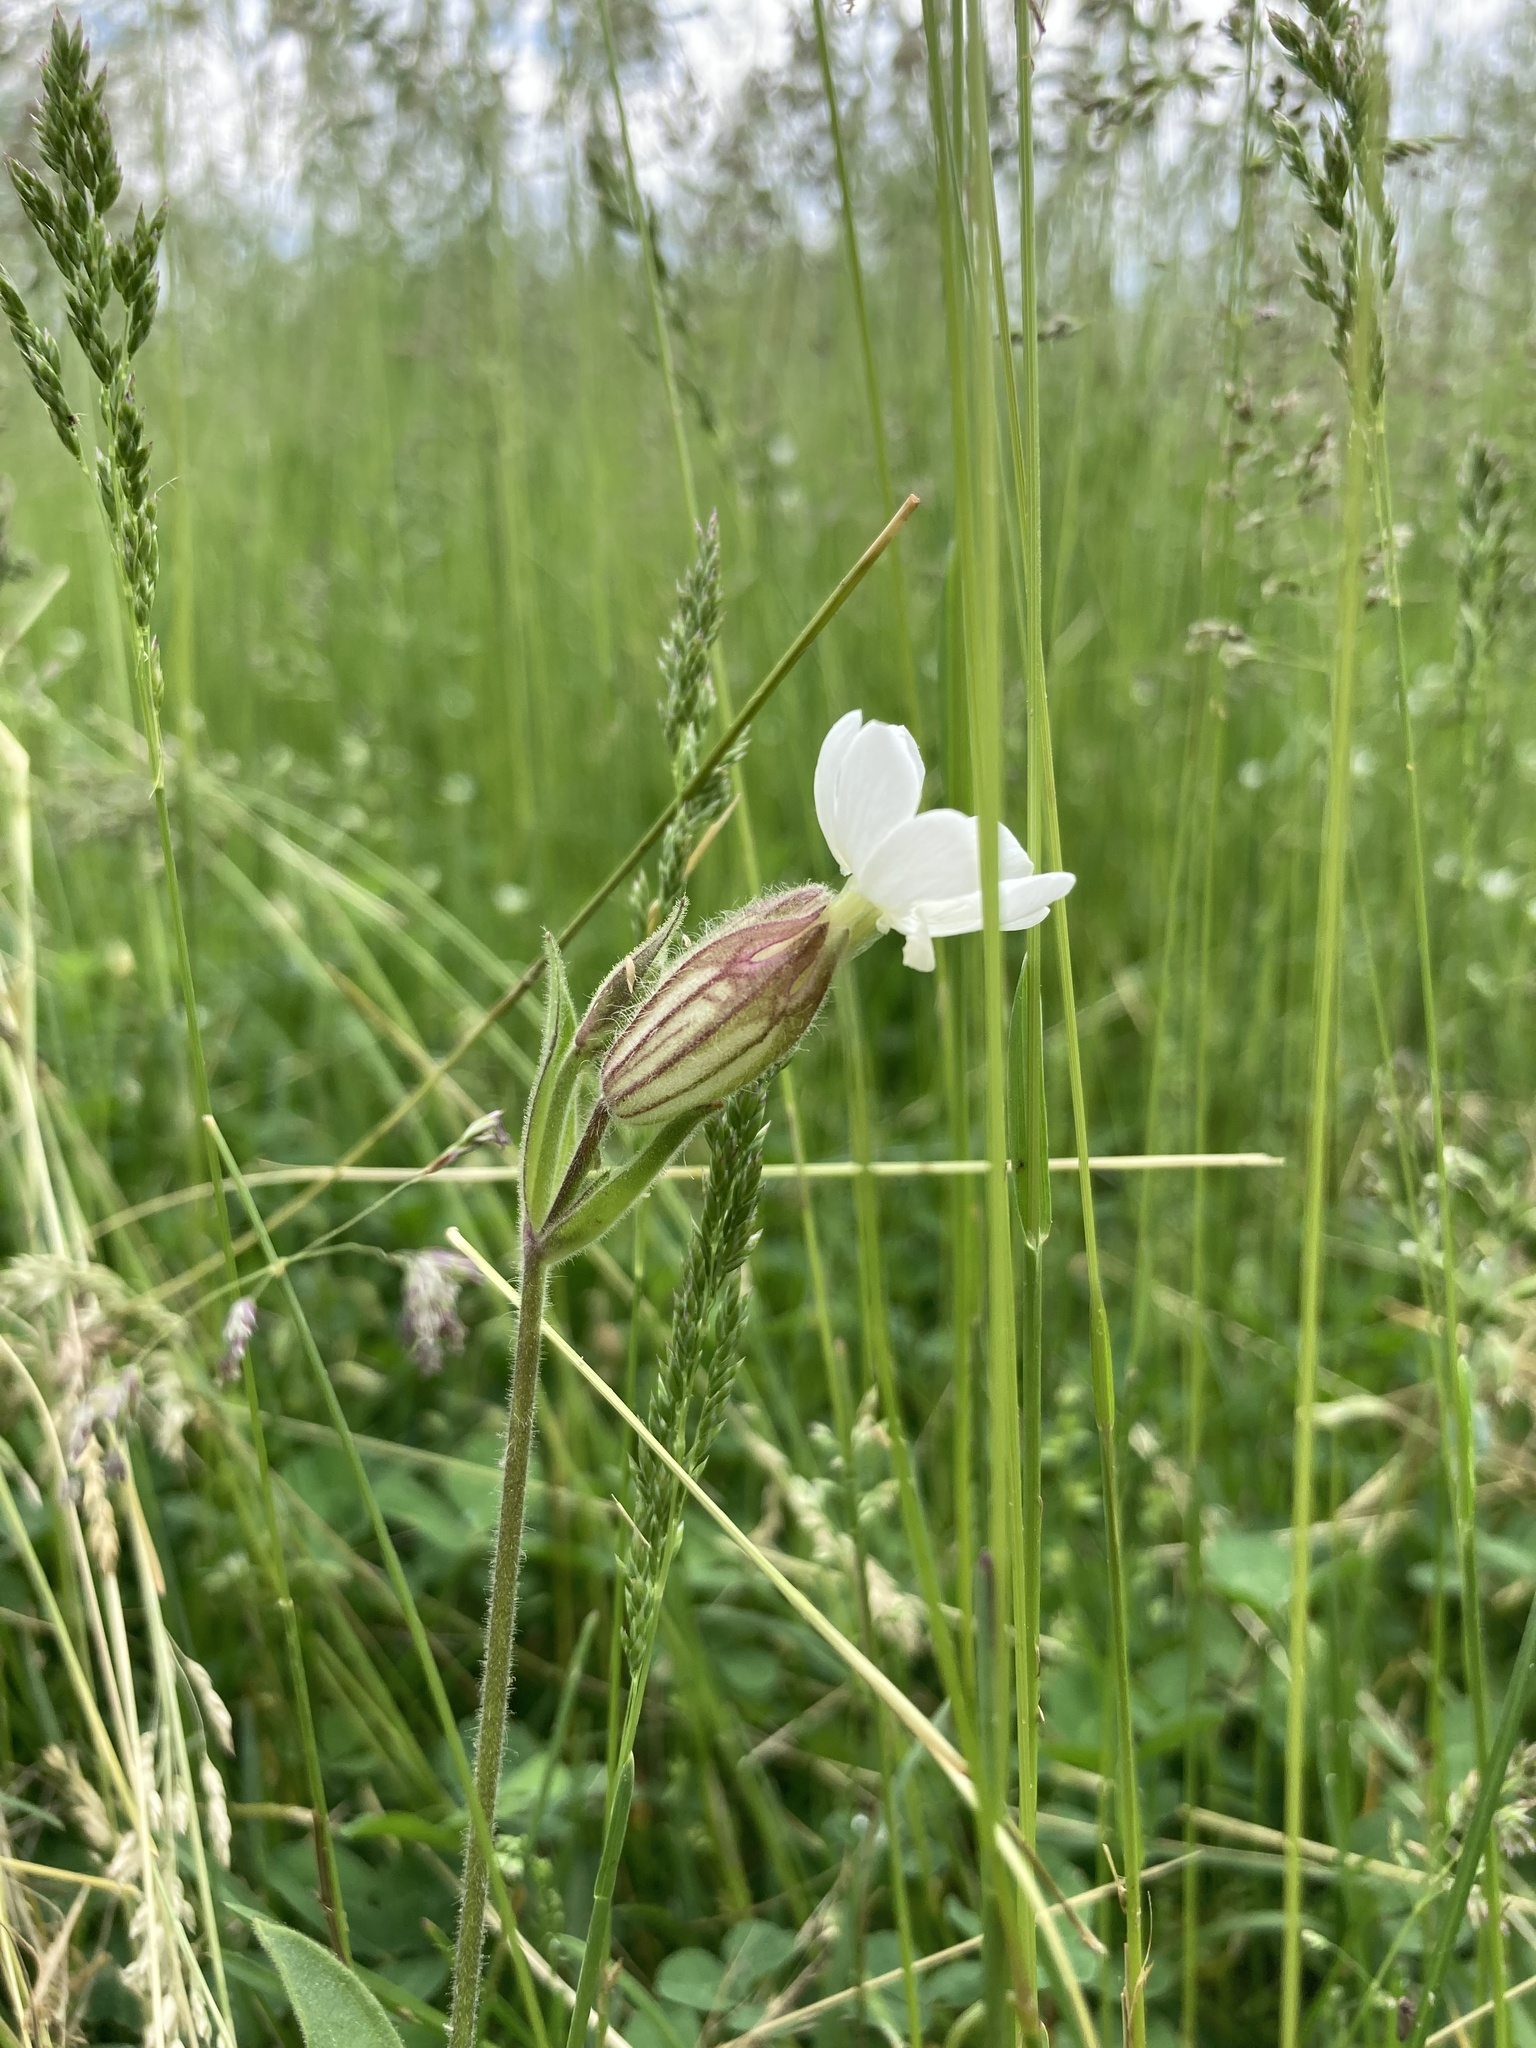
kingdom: Plantae
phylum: Tracheophyta
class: Magnoliopsida
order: Caryophyllales
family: Caryophyllaceae
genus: Silene
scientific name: Silene latifolia
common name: White campion
